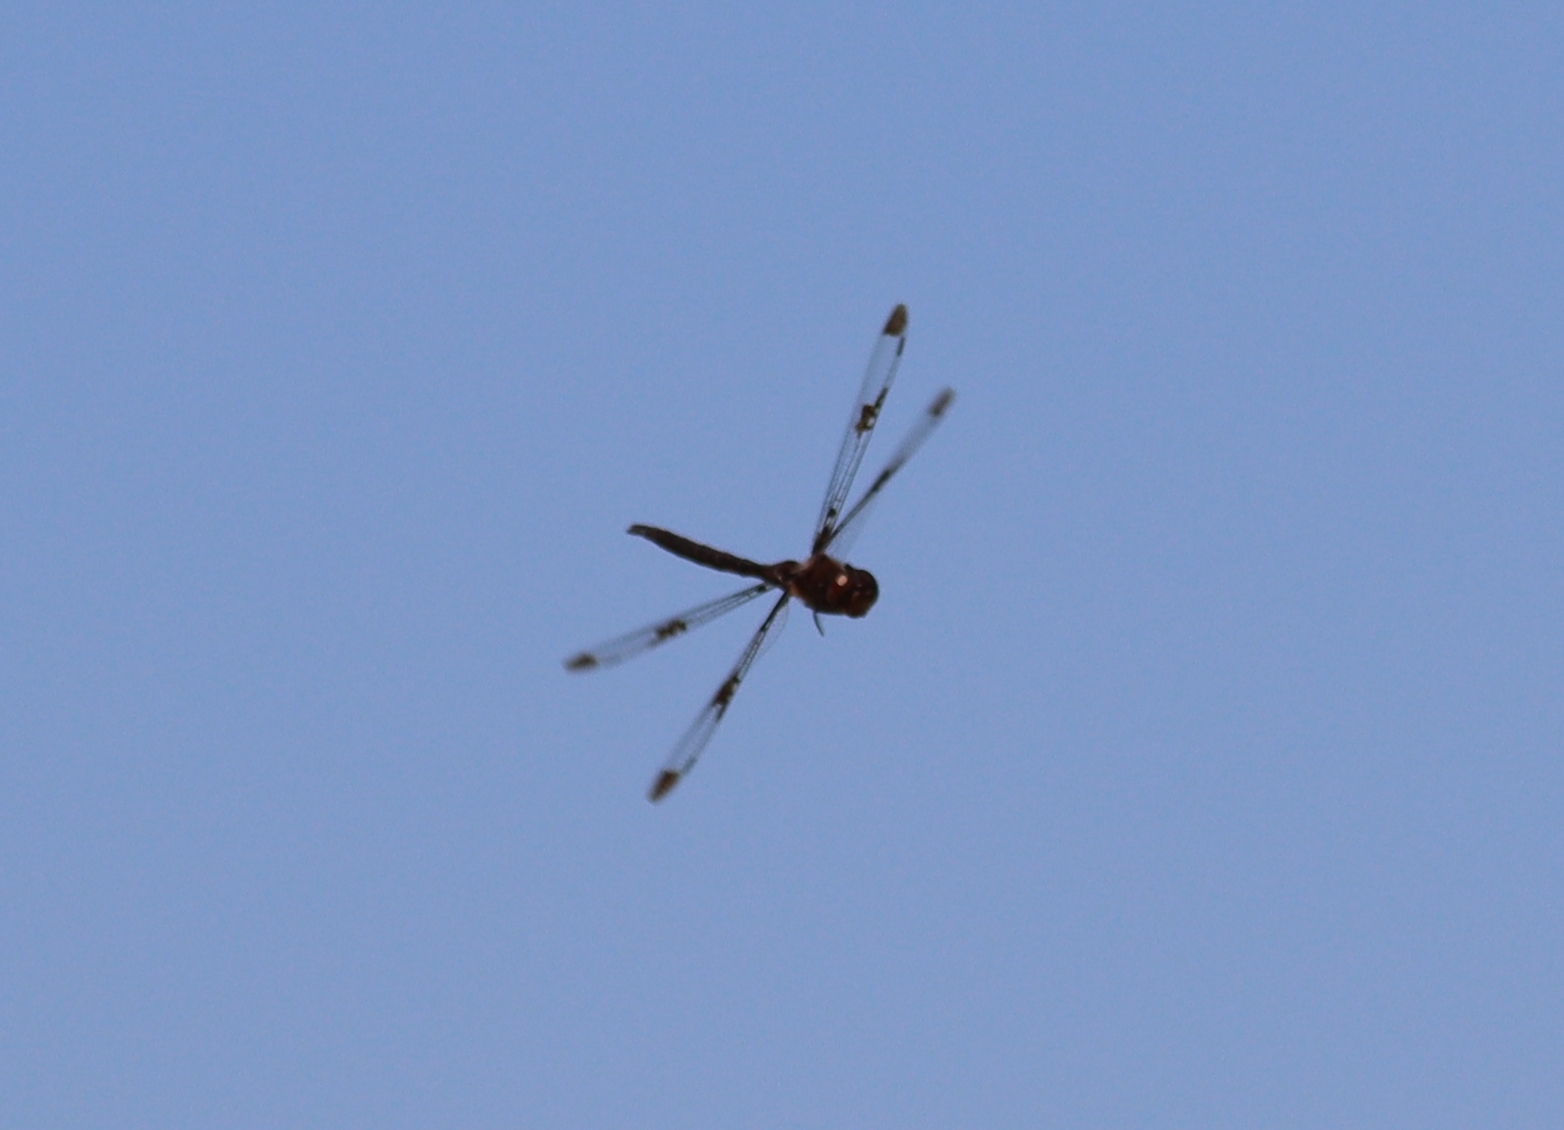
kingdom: Animalia
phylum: Arthropoda
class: Insecta
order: Odonata
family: Corduliidae
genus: Epitheca
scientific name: Epitheca princeps
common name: Prince baskettail
